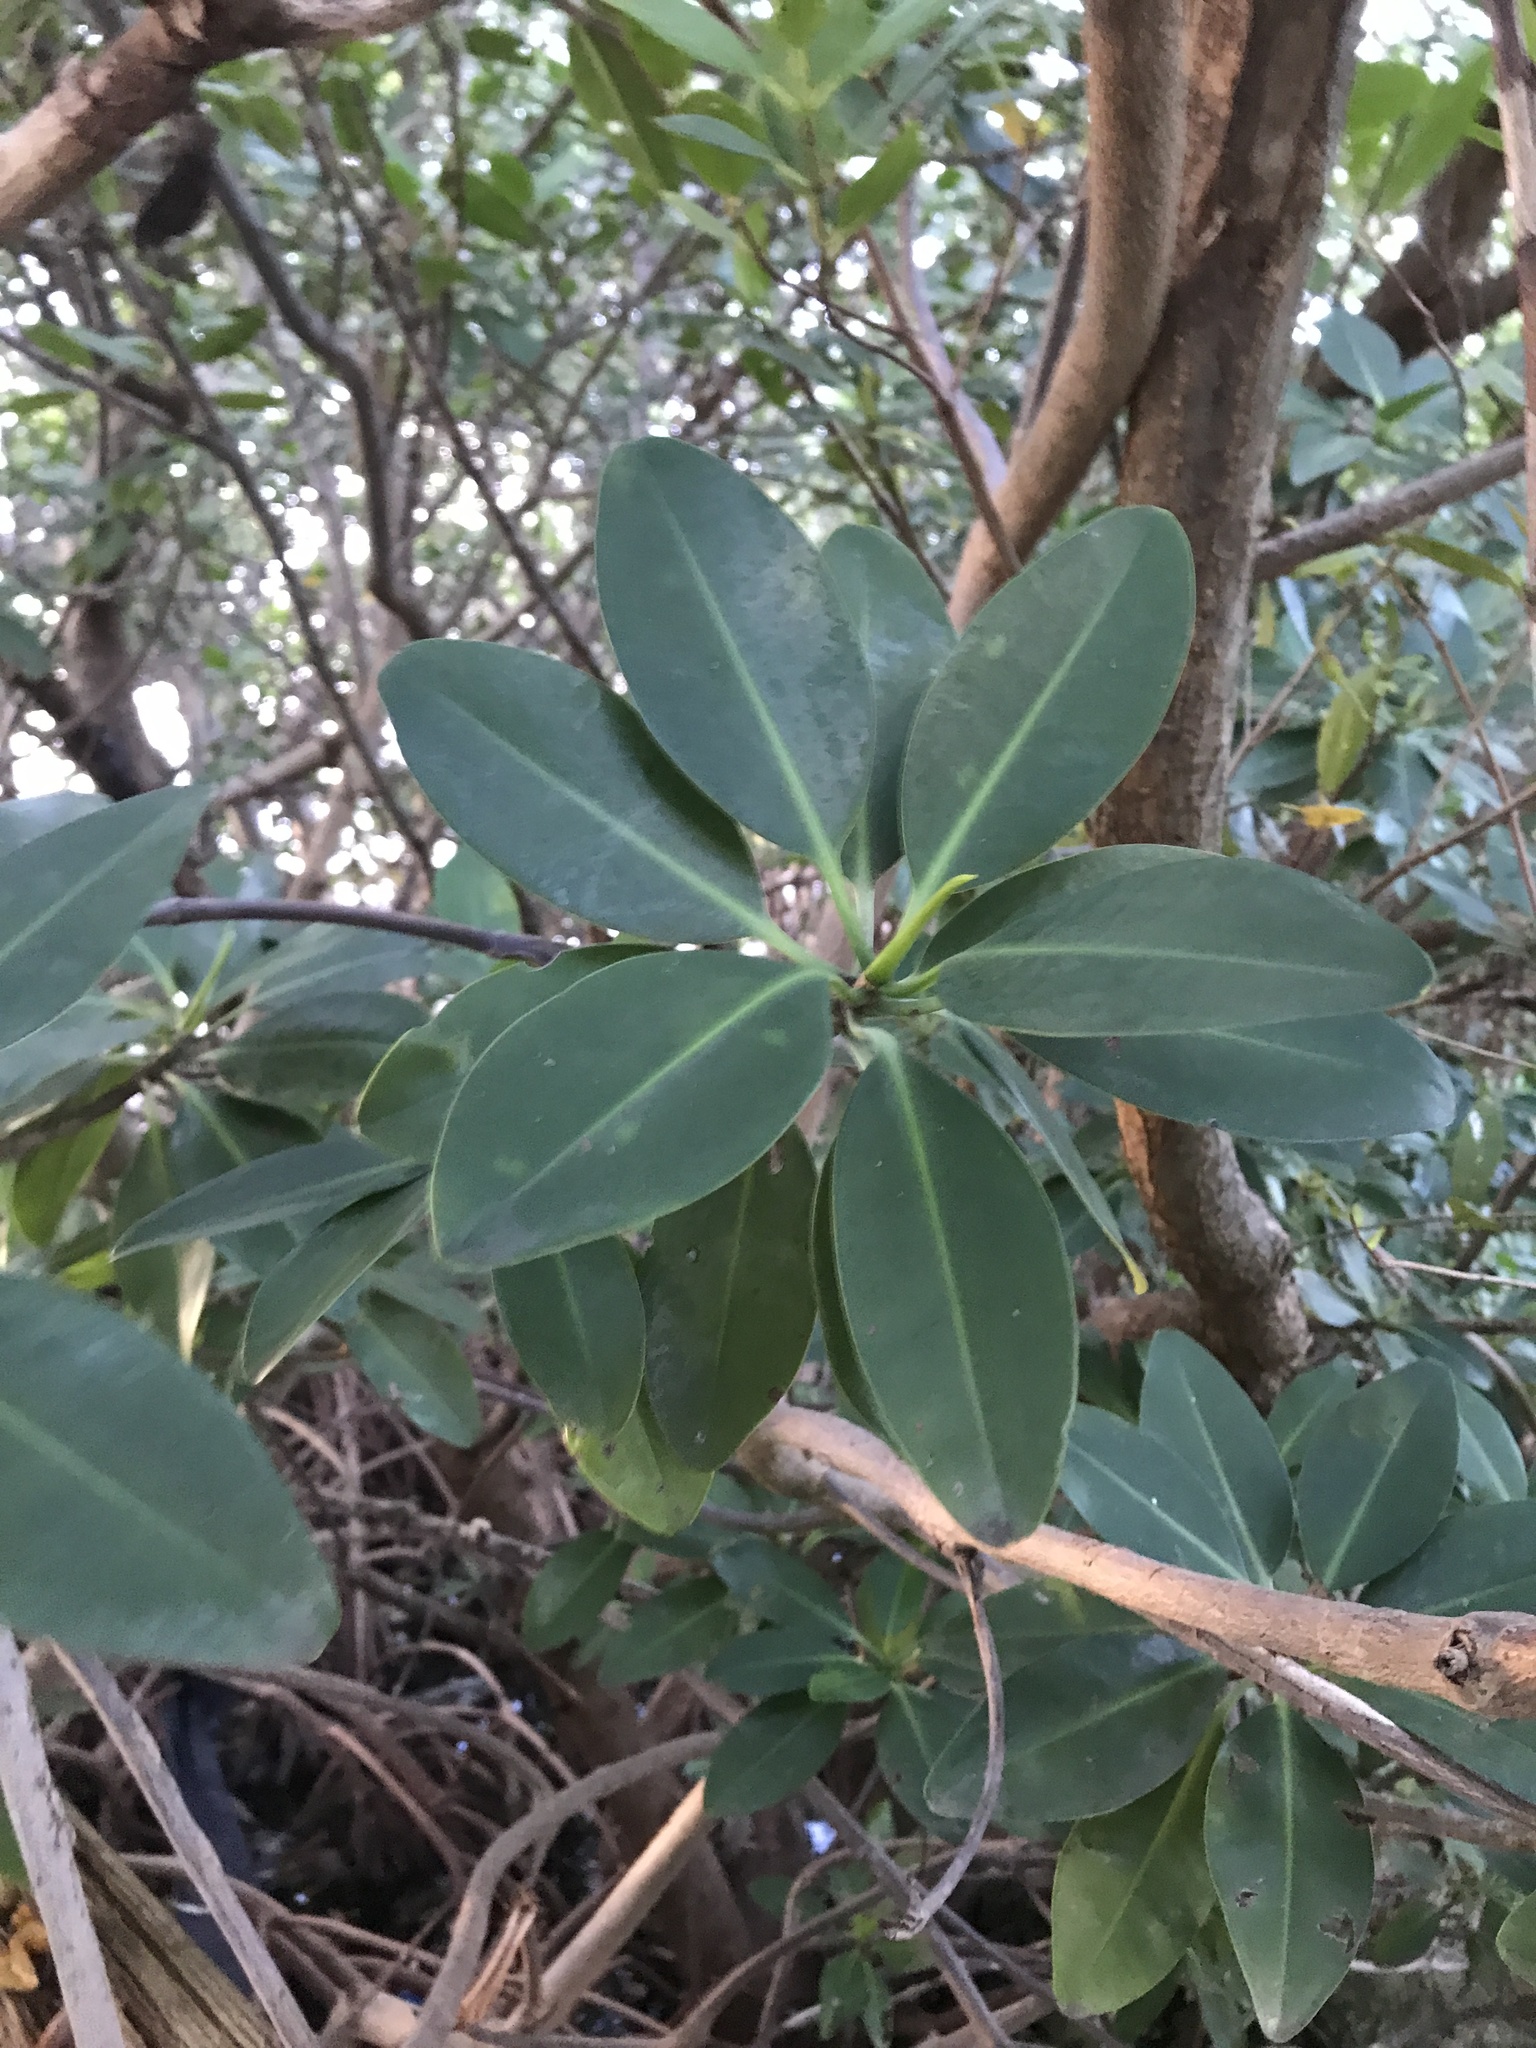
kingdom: Plantae
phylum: Tracheophyta
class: Magnoliopsida
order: Malpighiales
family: Rhizophoraceae
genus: Rhizophora
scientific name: Rhizophora mangle
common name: Red mangrove
